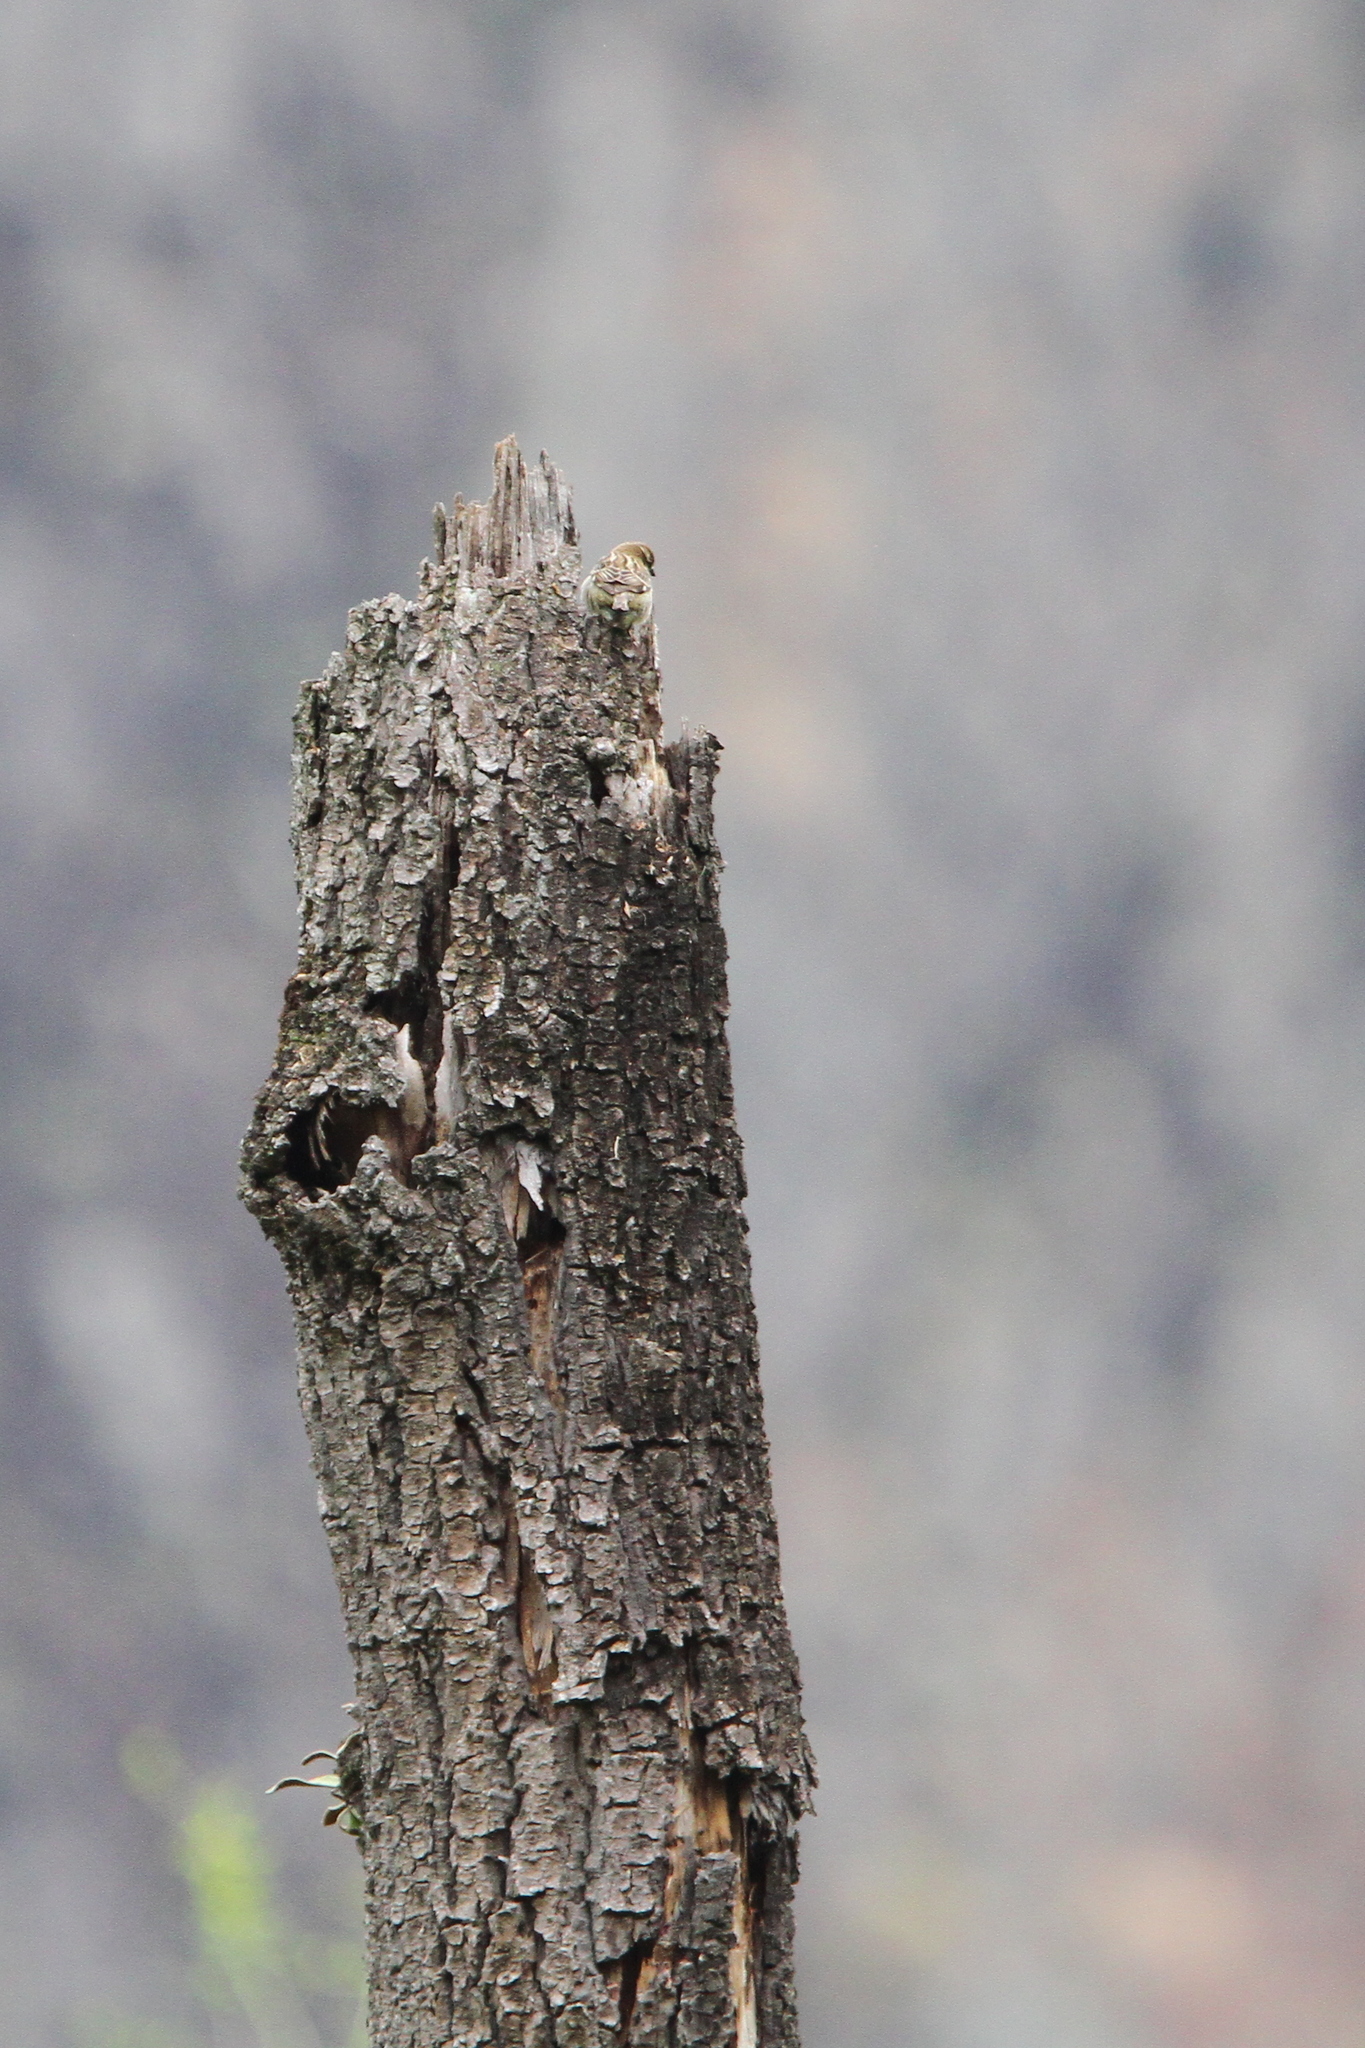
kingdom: Animalia
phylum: Chordata
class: Aves
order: Passeriformes
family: Passeridae
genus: Passer
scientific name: Passer cinnamomeus
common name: Russet sparrow
